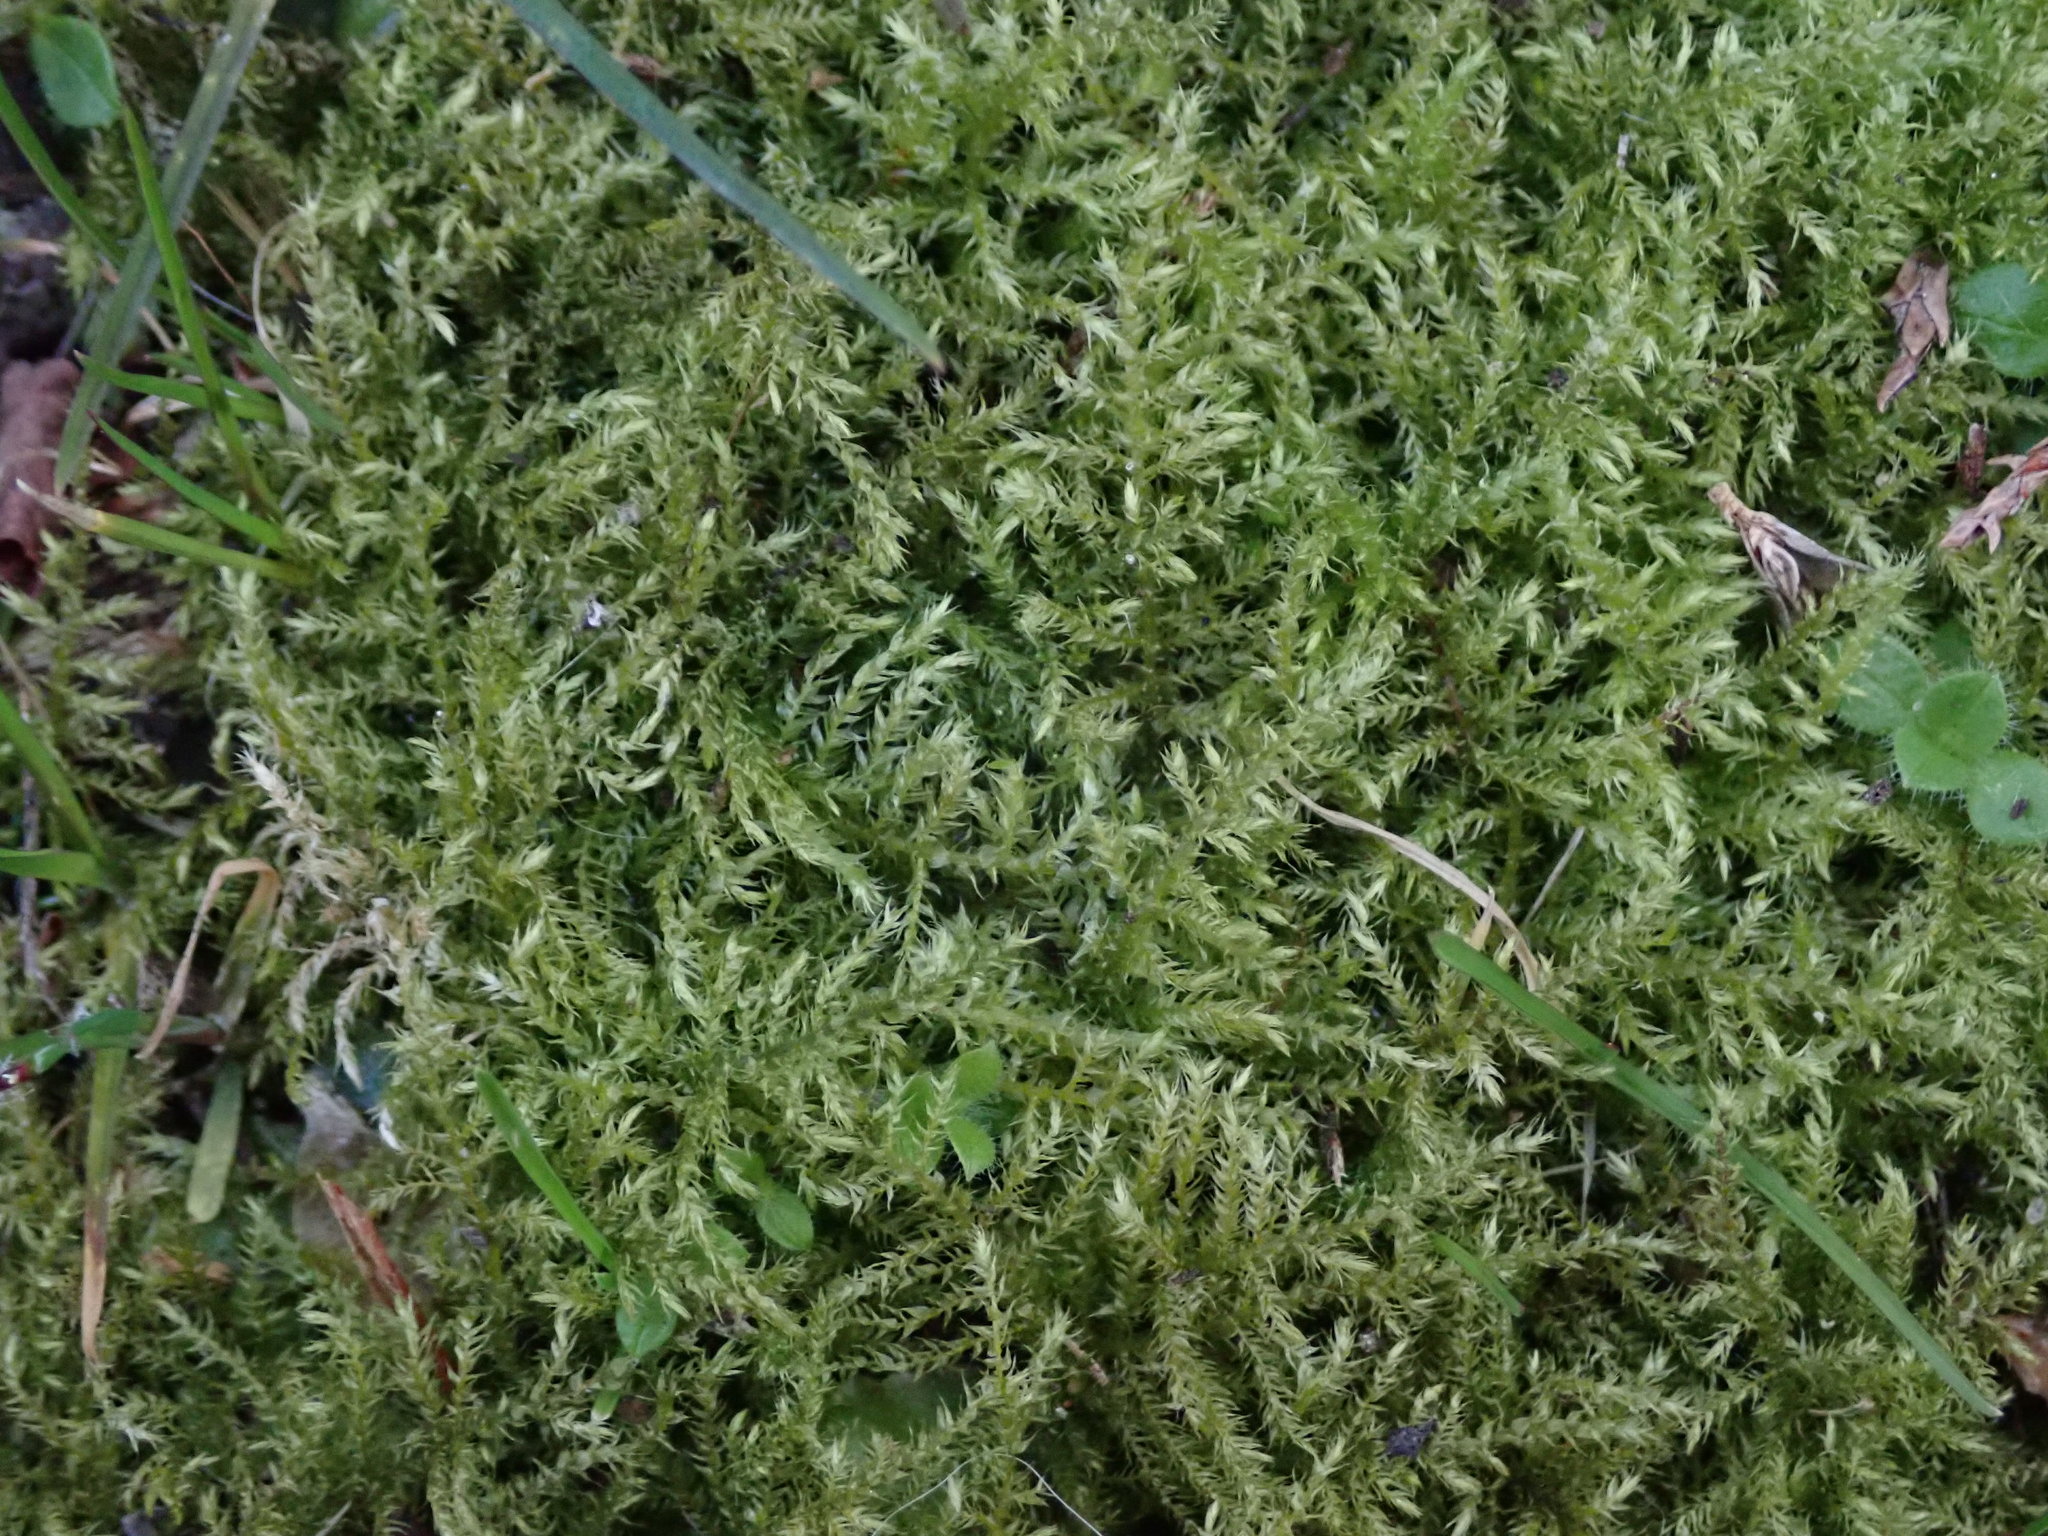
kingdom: Plantae
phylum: Bryophyta
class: Bryopsida
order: Hypnales
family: Brachytheciaceae
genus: Kindbergia
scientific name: Kindbergia praelonga
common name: Slender beaked moss
